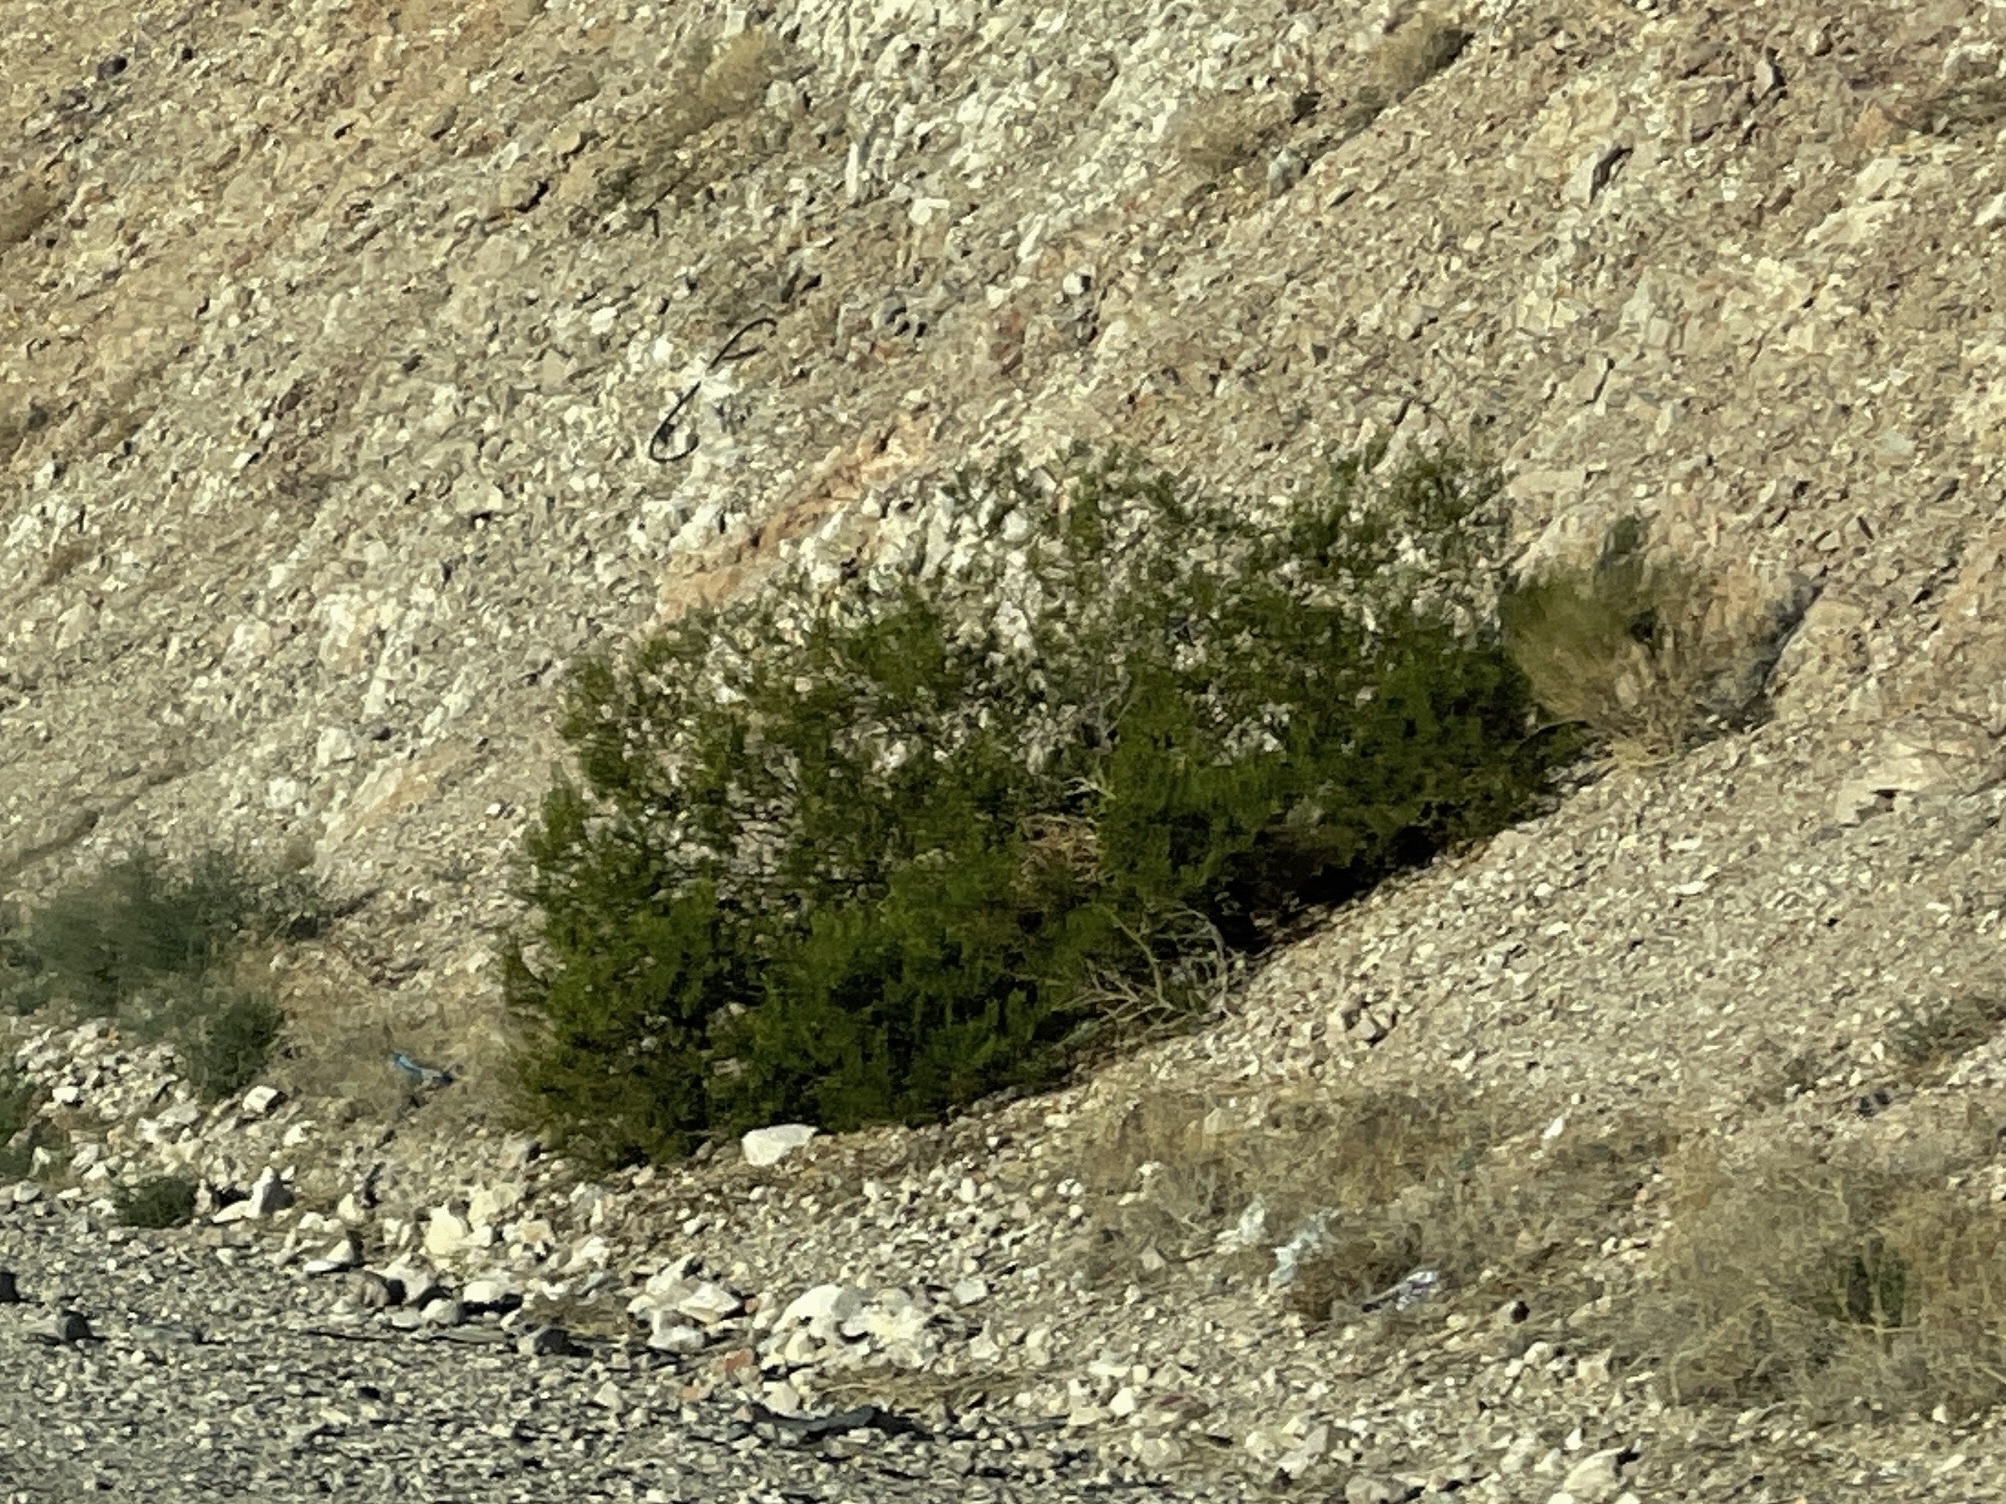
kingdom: Plantae
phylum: Tracheophyta
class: Magnoliopsida
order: Zygophyllales
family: Zygophyllaceae
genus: Larrea
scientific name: Larrea tridentata
